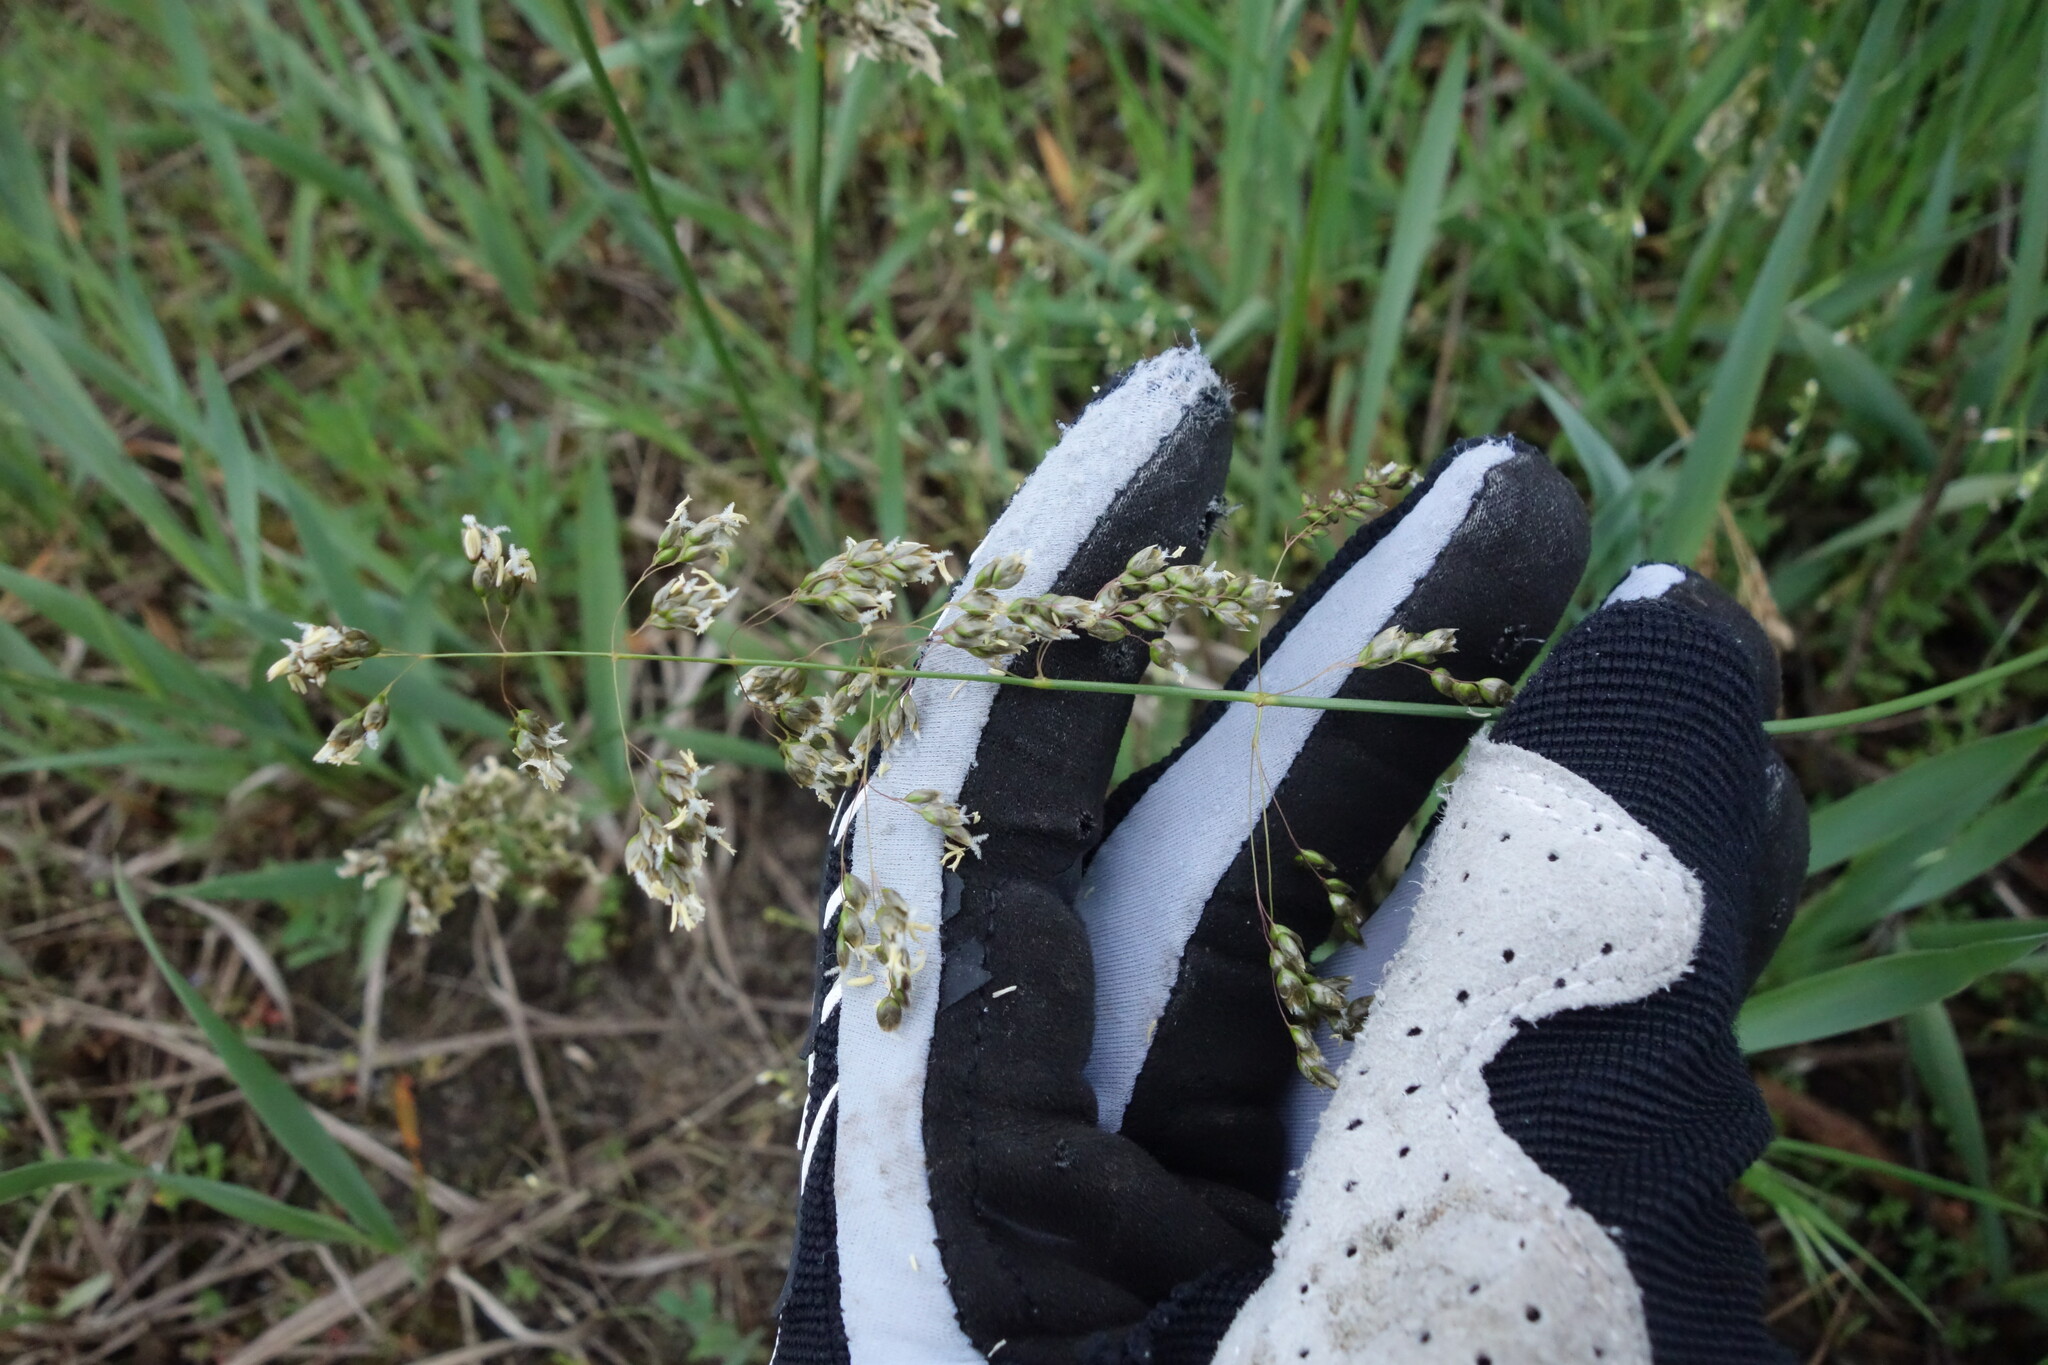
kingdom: Plantae
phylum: Tracheophyta
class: Liliopsida
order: Poales
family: Poaceae
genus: Anthoxanthum
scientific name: Anthoxanthum repens
